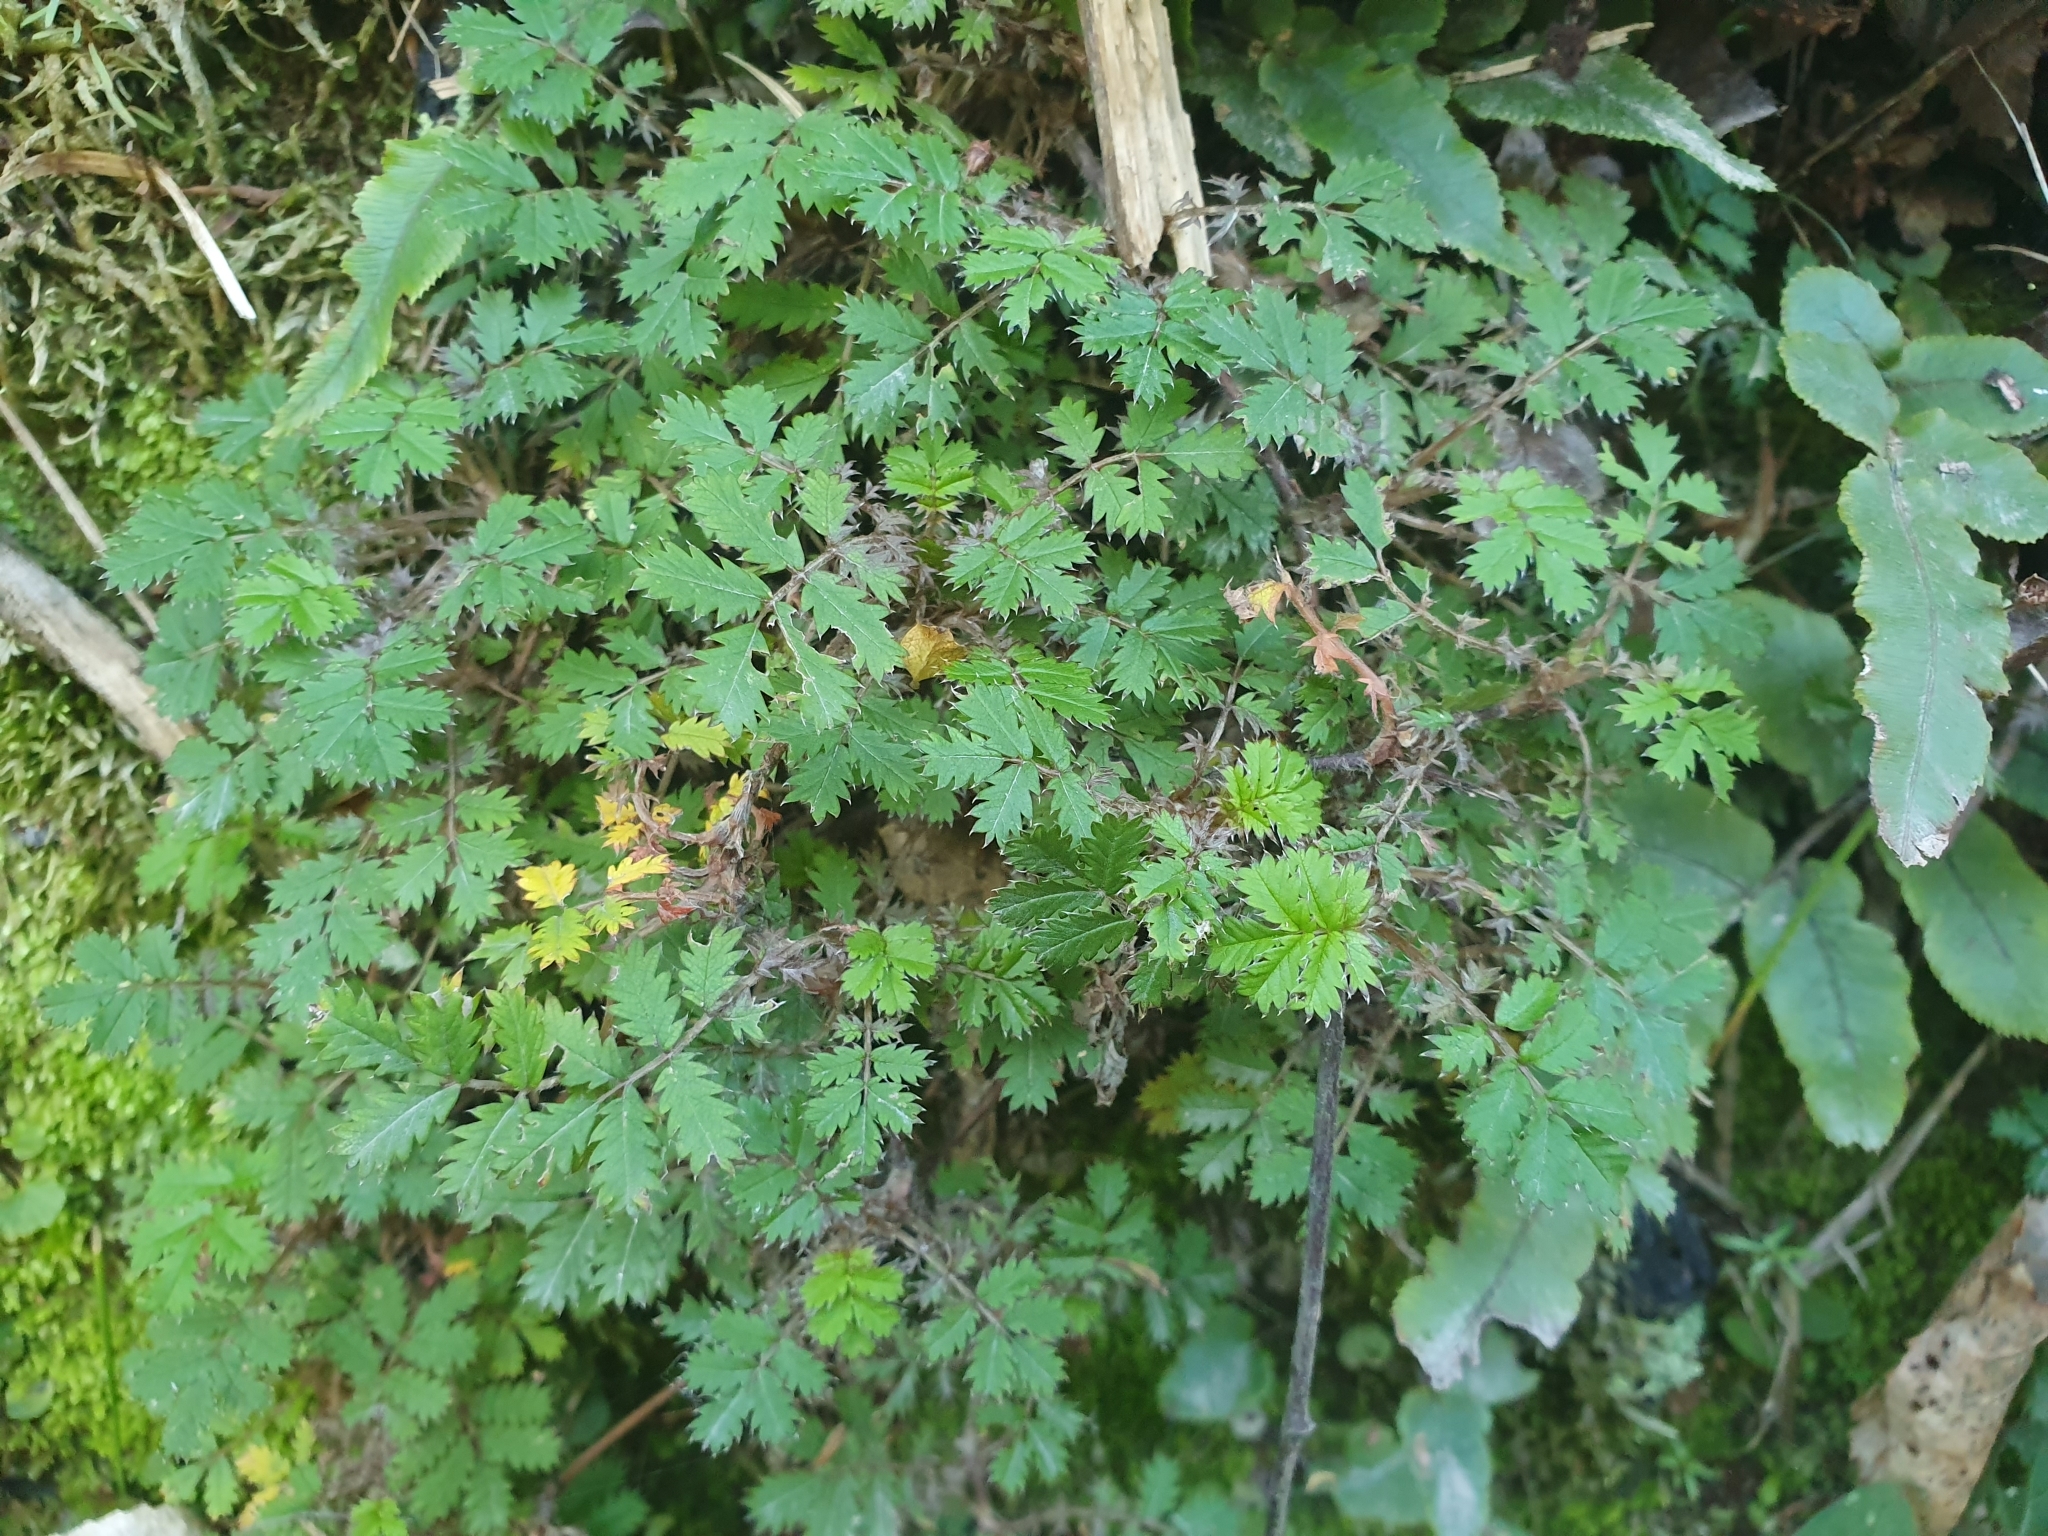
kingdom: Plantae
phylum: Tracheophyta
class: Magnoliopsida
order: Rosales
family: Rosaceae
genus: Acaena
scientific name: Acaena anserinifolia
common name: Bronze pirri-pirri-bur
